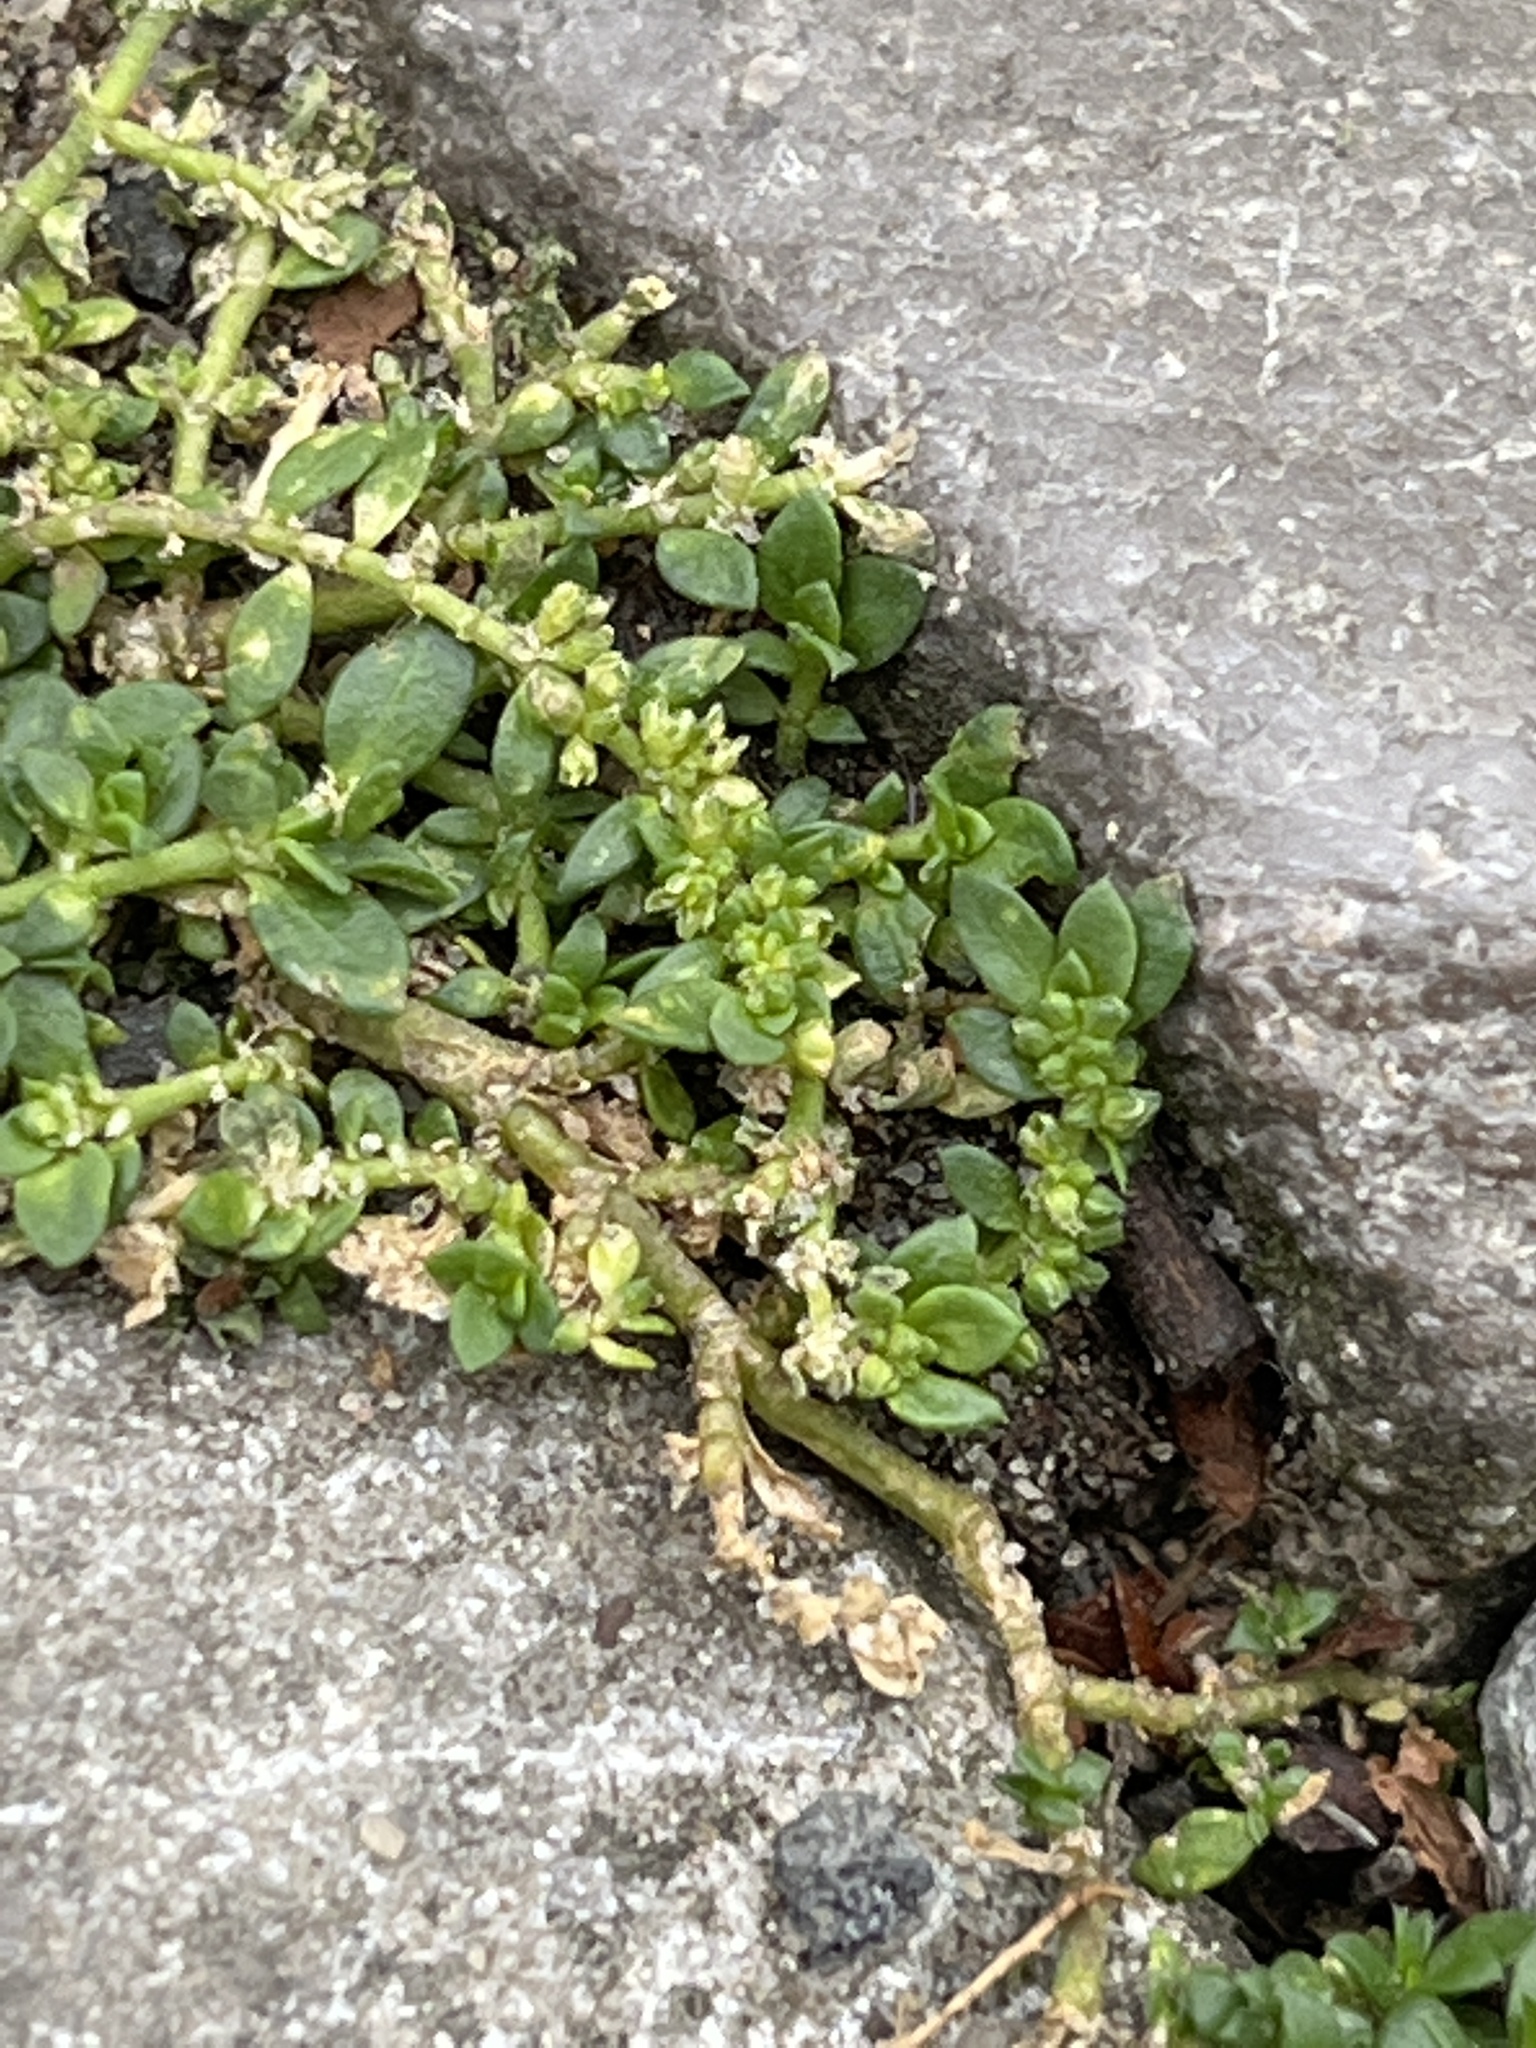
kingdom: Plantae
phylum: Tracheophyta
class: Magnoliopsida
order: Caryophyllales
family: Caryophyllaceae
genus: Herniaria
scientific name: Herniaria glabra
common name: Smooth rupturewort
